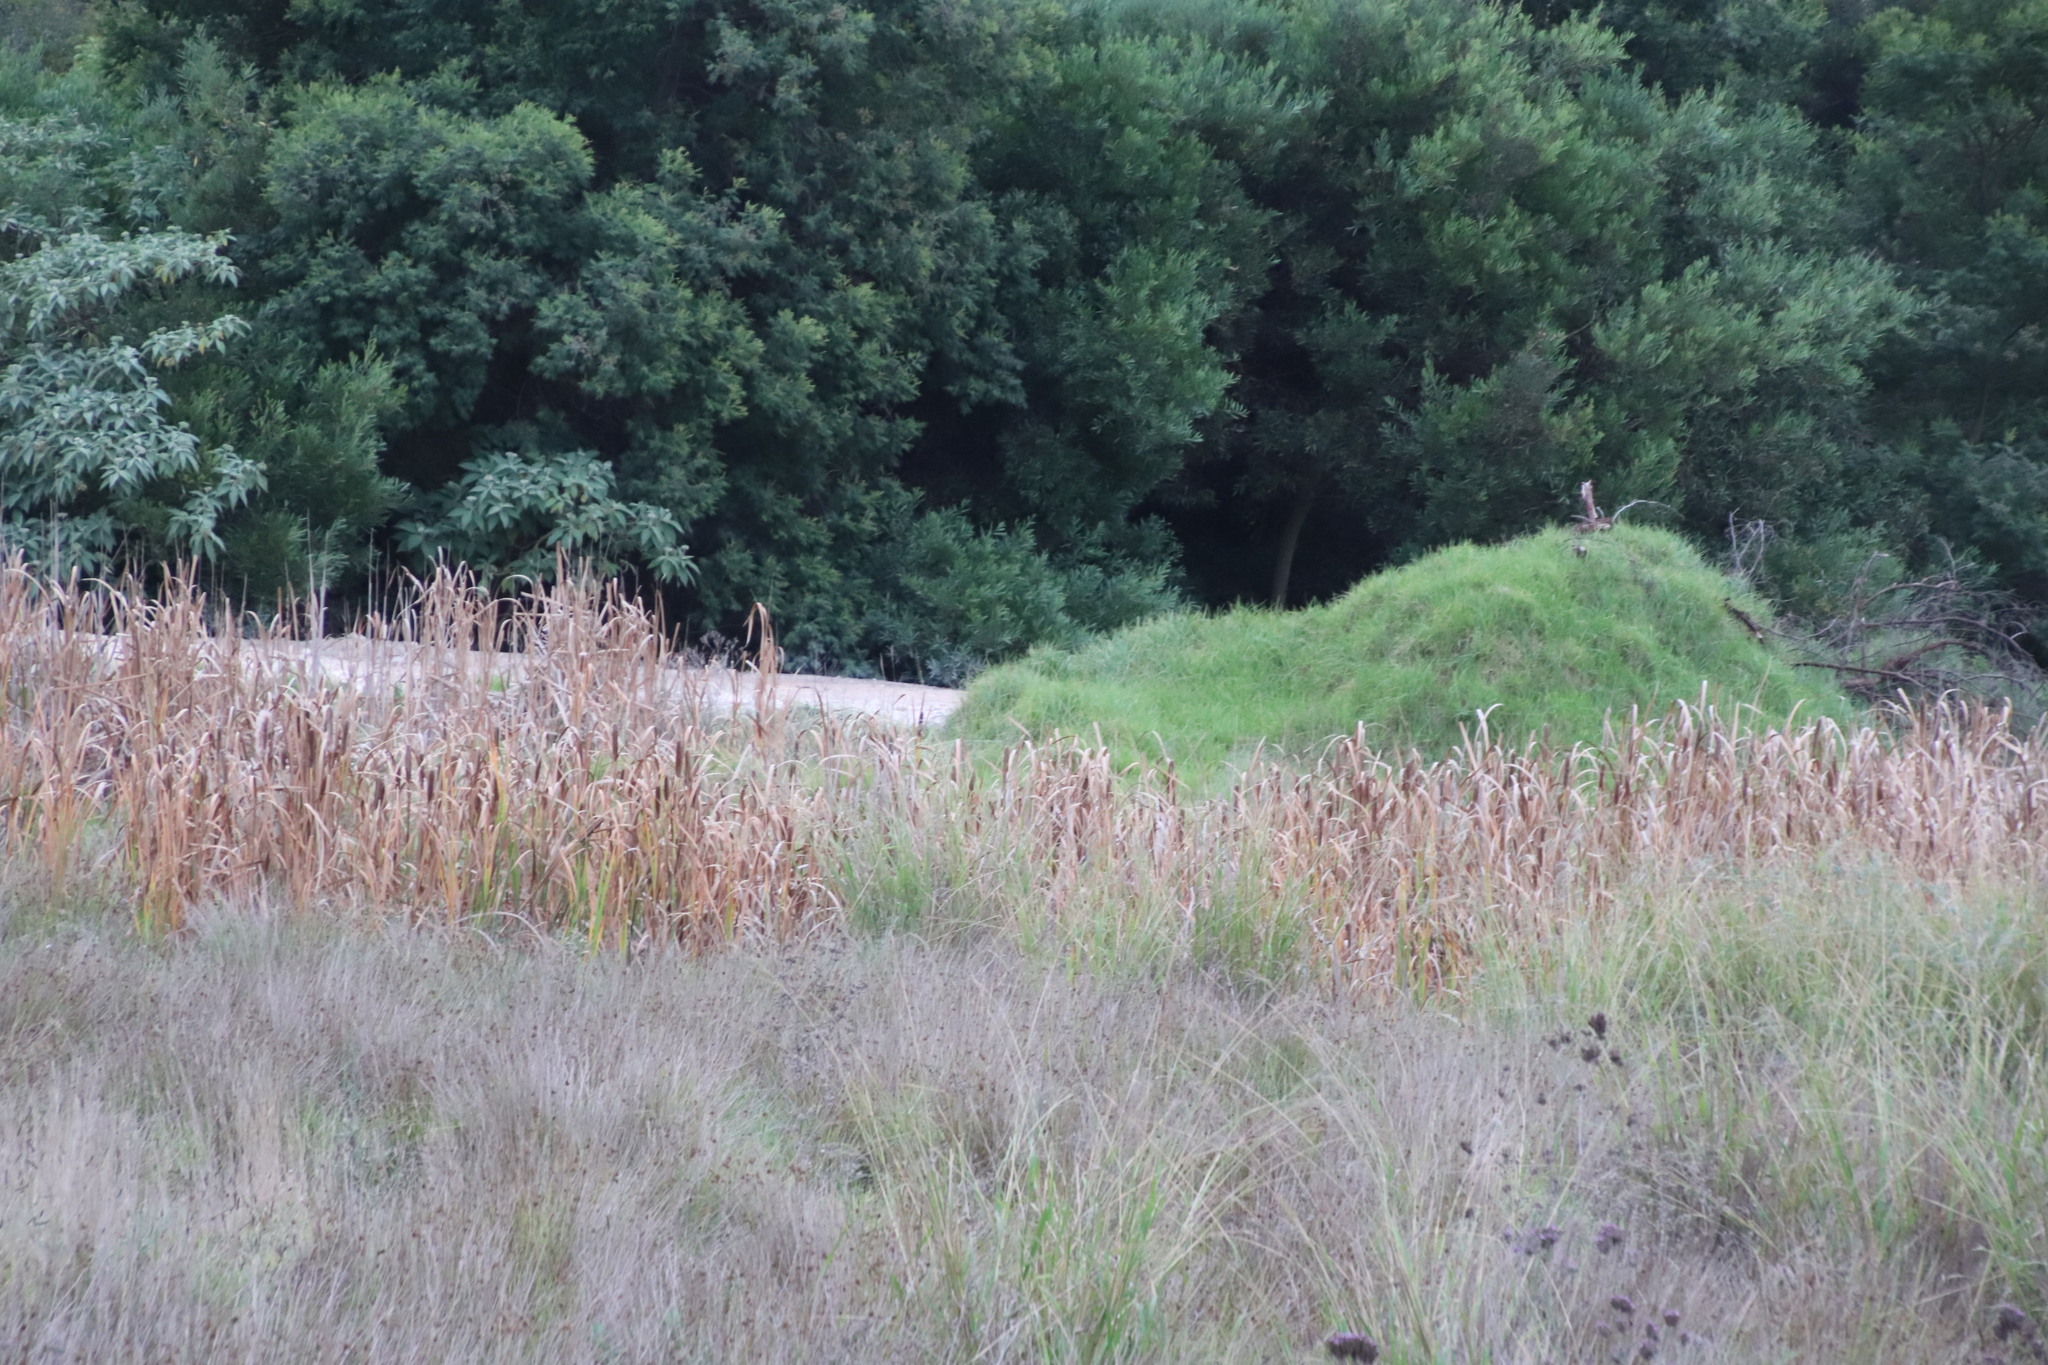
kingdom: Plantae
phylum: Tracheophyta
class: Liliopsida
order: Poales
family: Typhaceae
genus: Typha
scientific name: Typha capensis
